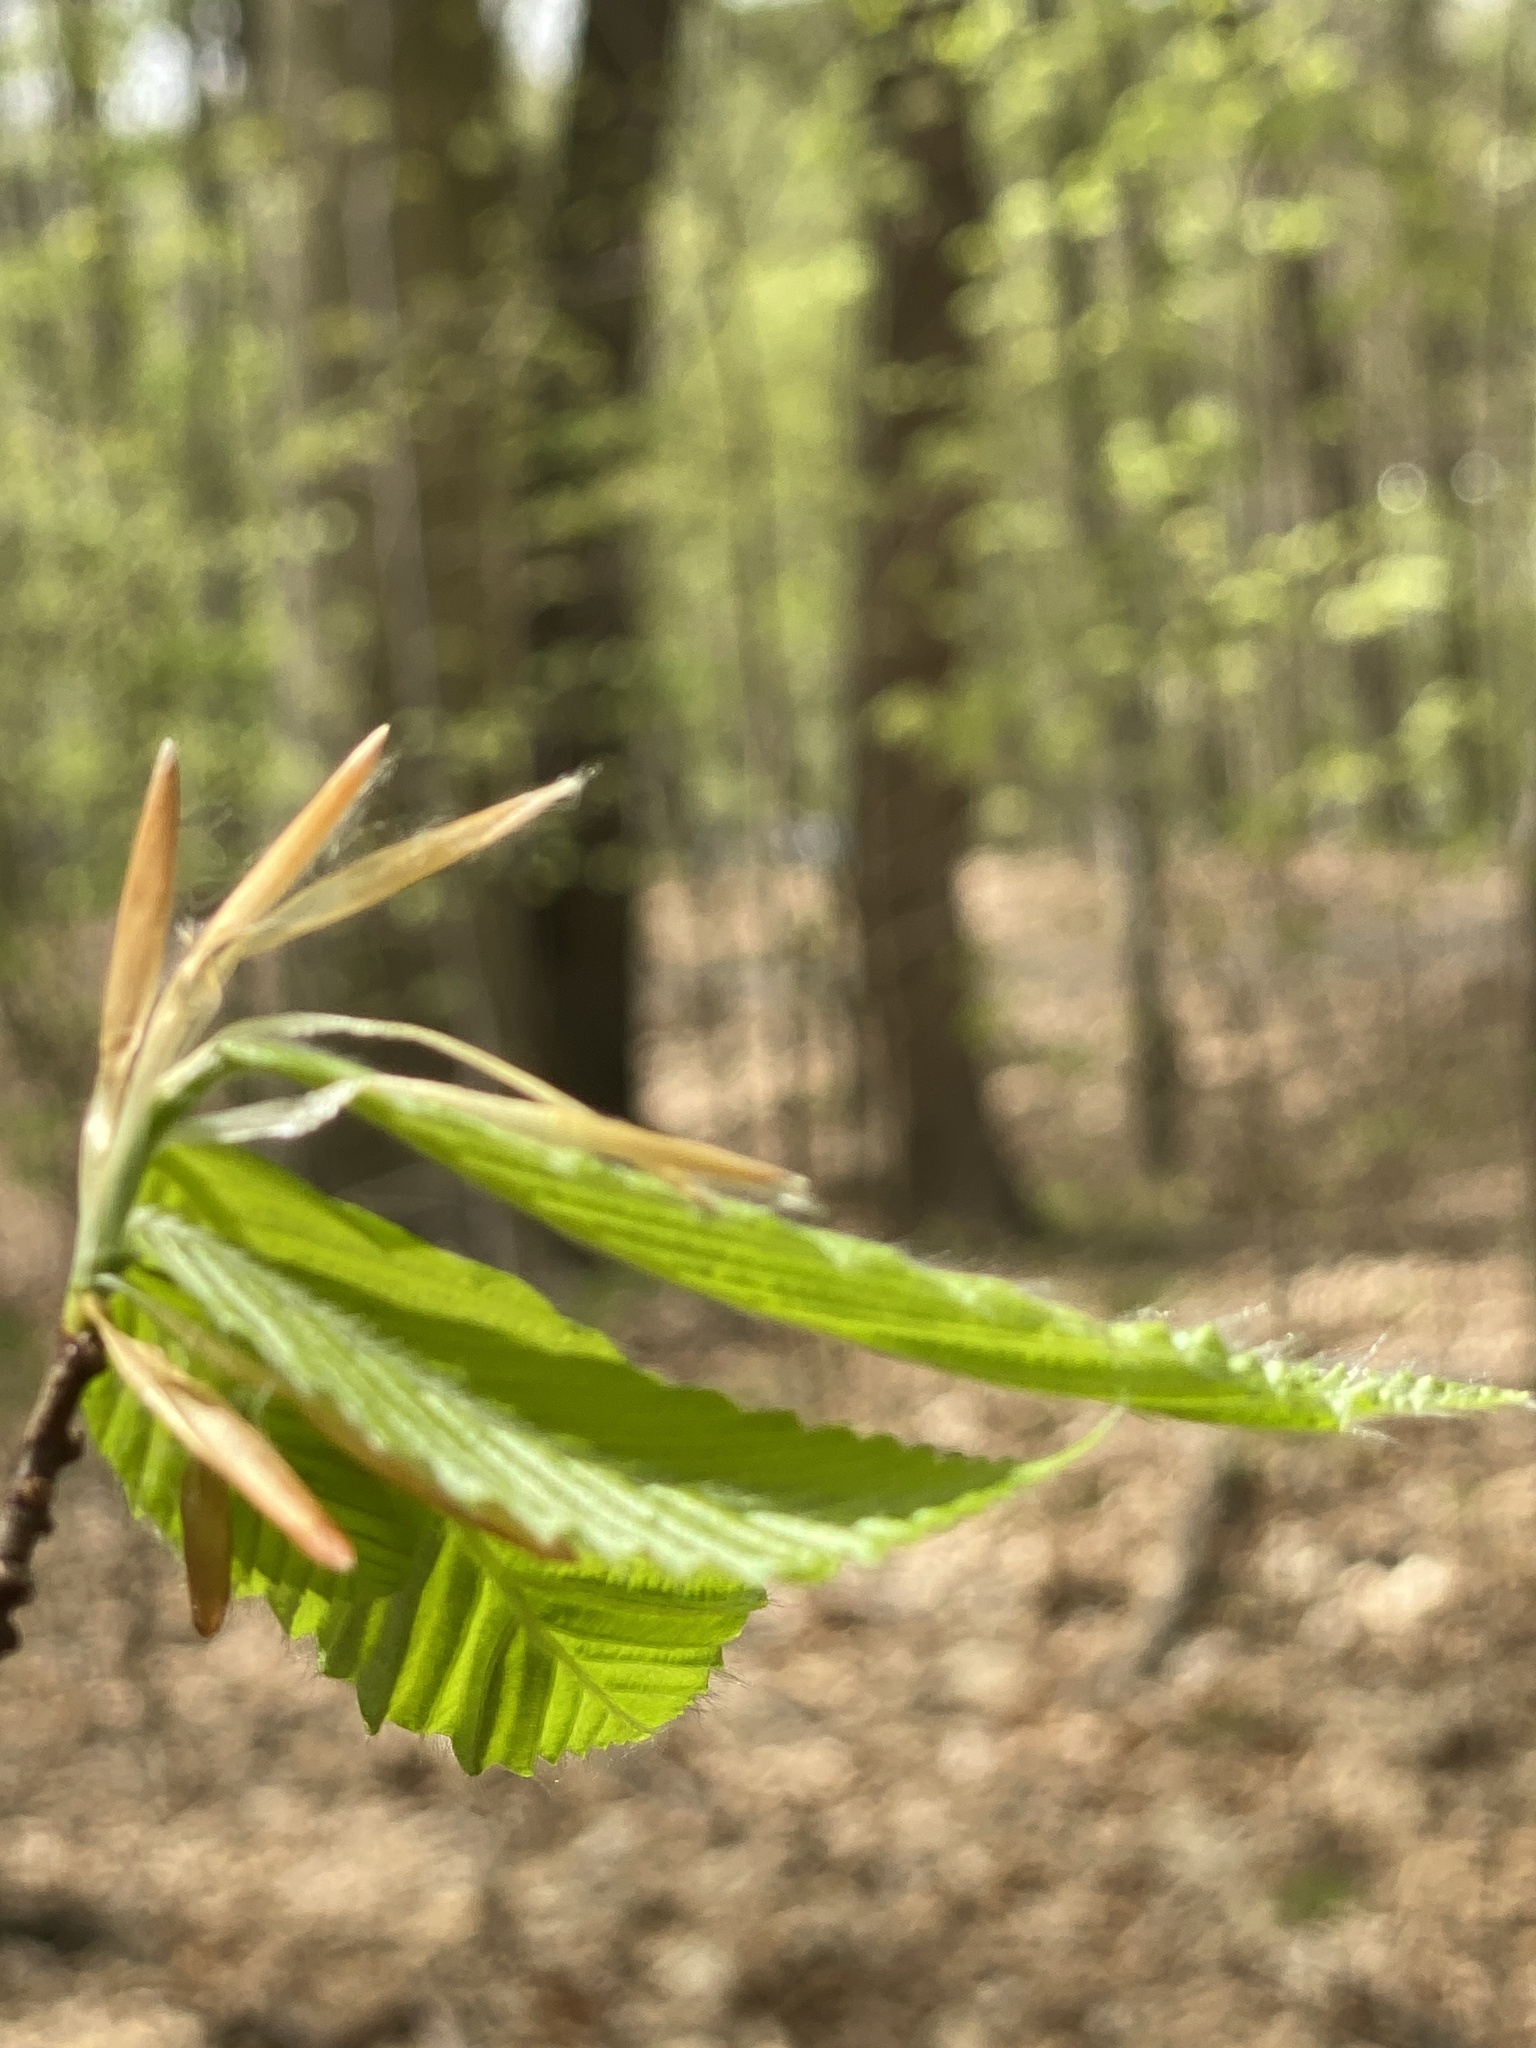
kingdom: Plantae
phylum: Tracheophyta
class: Magnoliopsida
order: Fagales
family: Fagaceae
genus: Fagus
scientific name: Fagus grandifolia
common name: American beech
